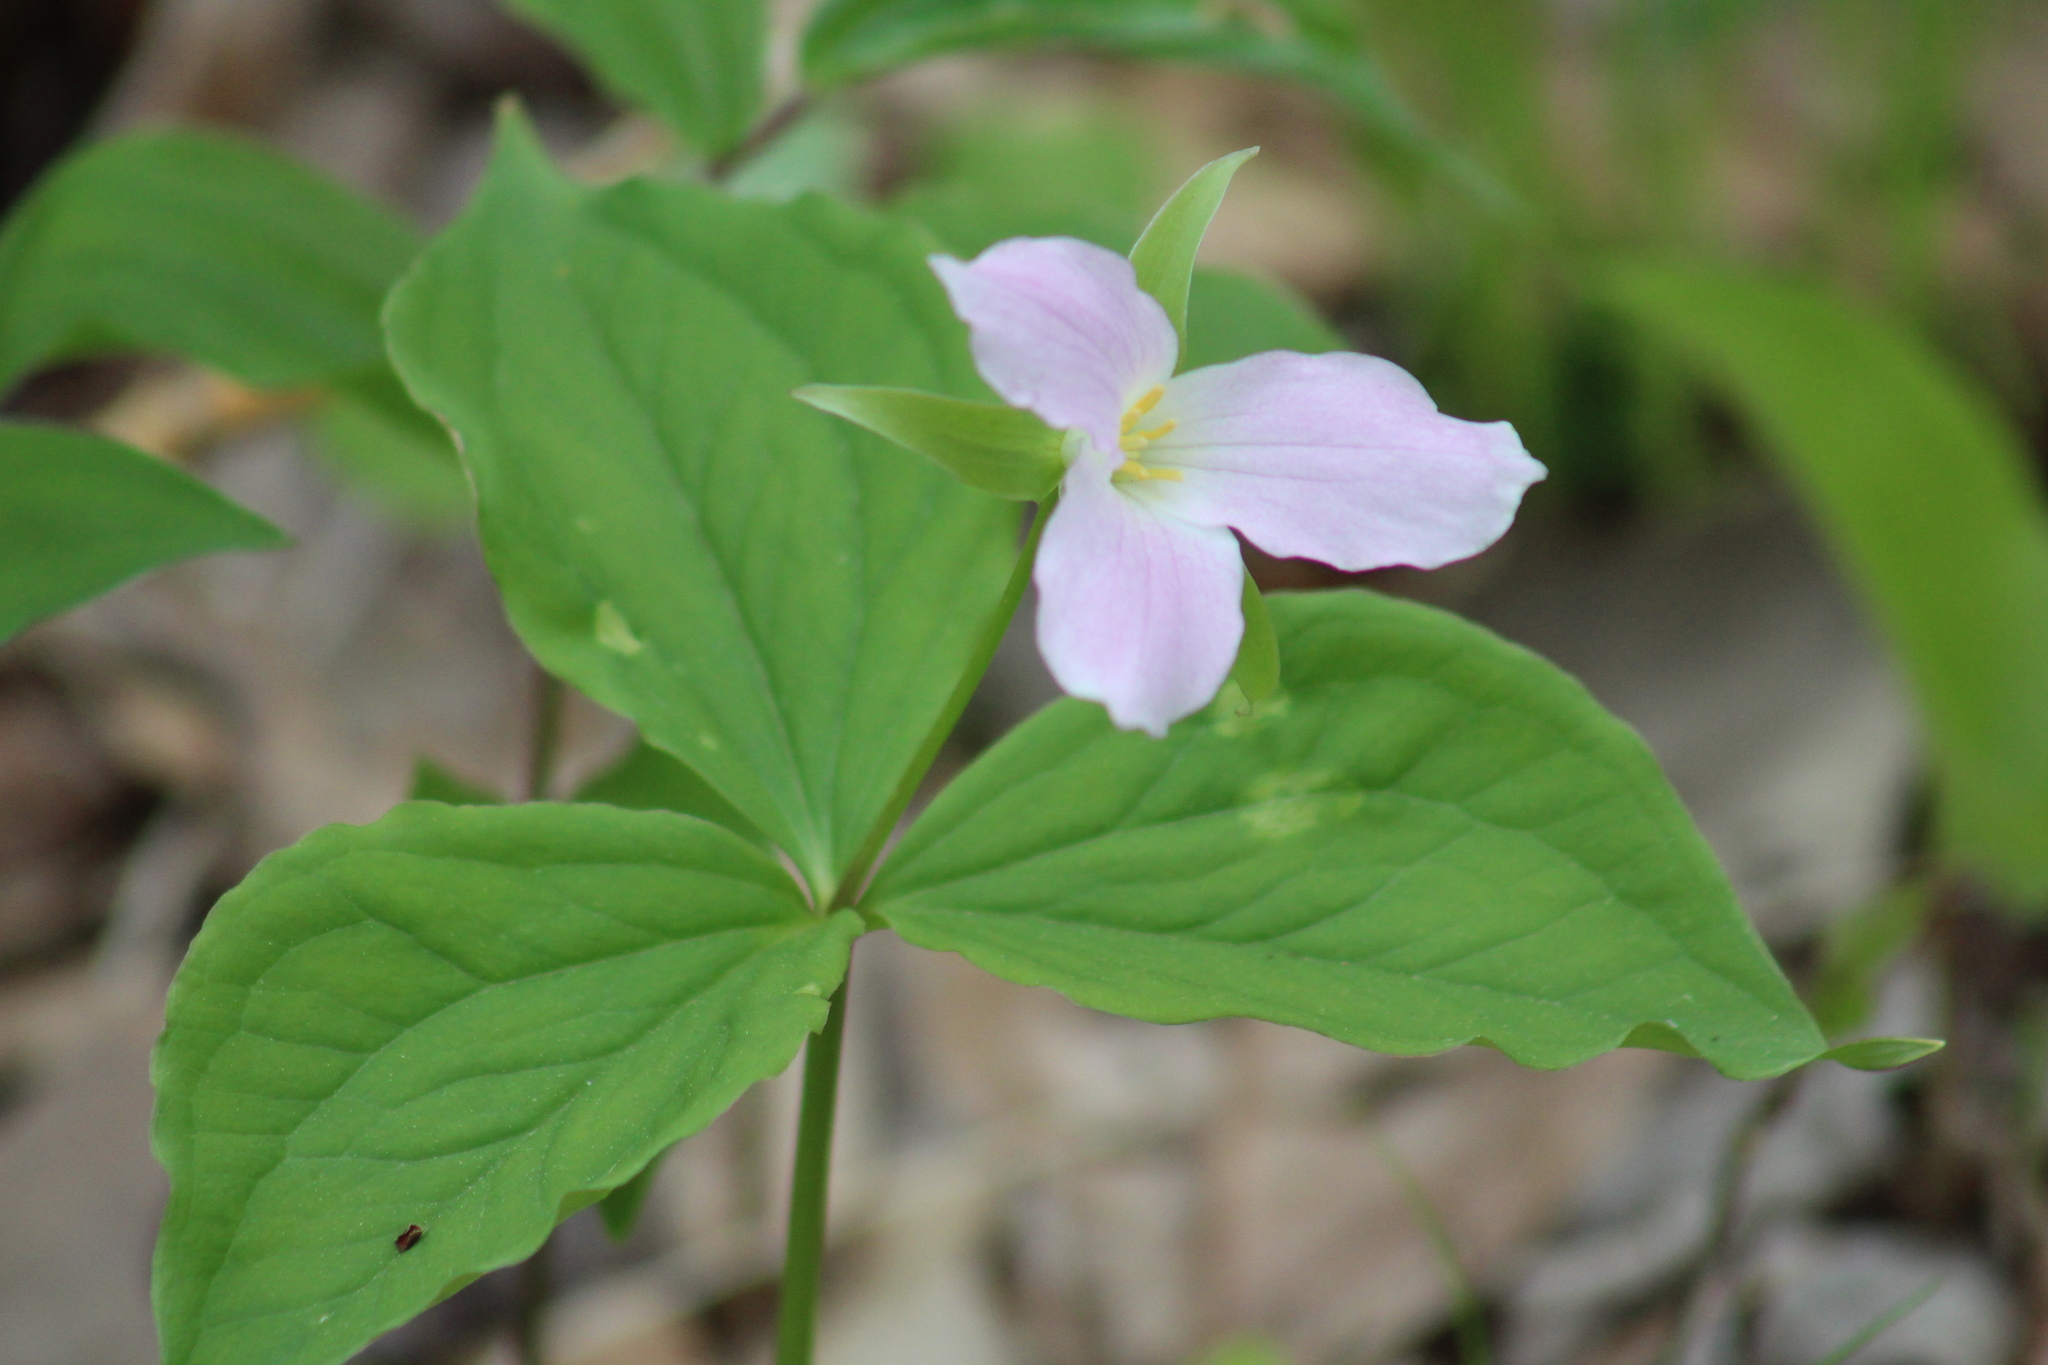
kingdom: Plantae
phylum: Tracheophyta
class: Liliopsida
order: Liliales
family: Melanthiaceae
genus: Trillium
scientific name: Trillium grandiflorum
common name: Great white trillium
